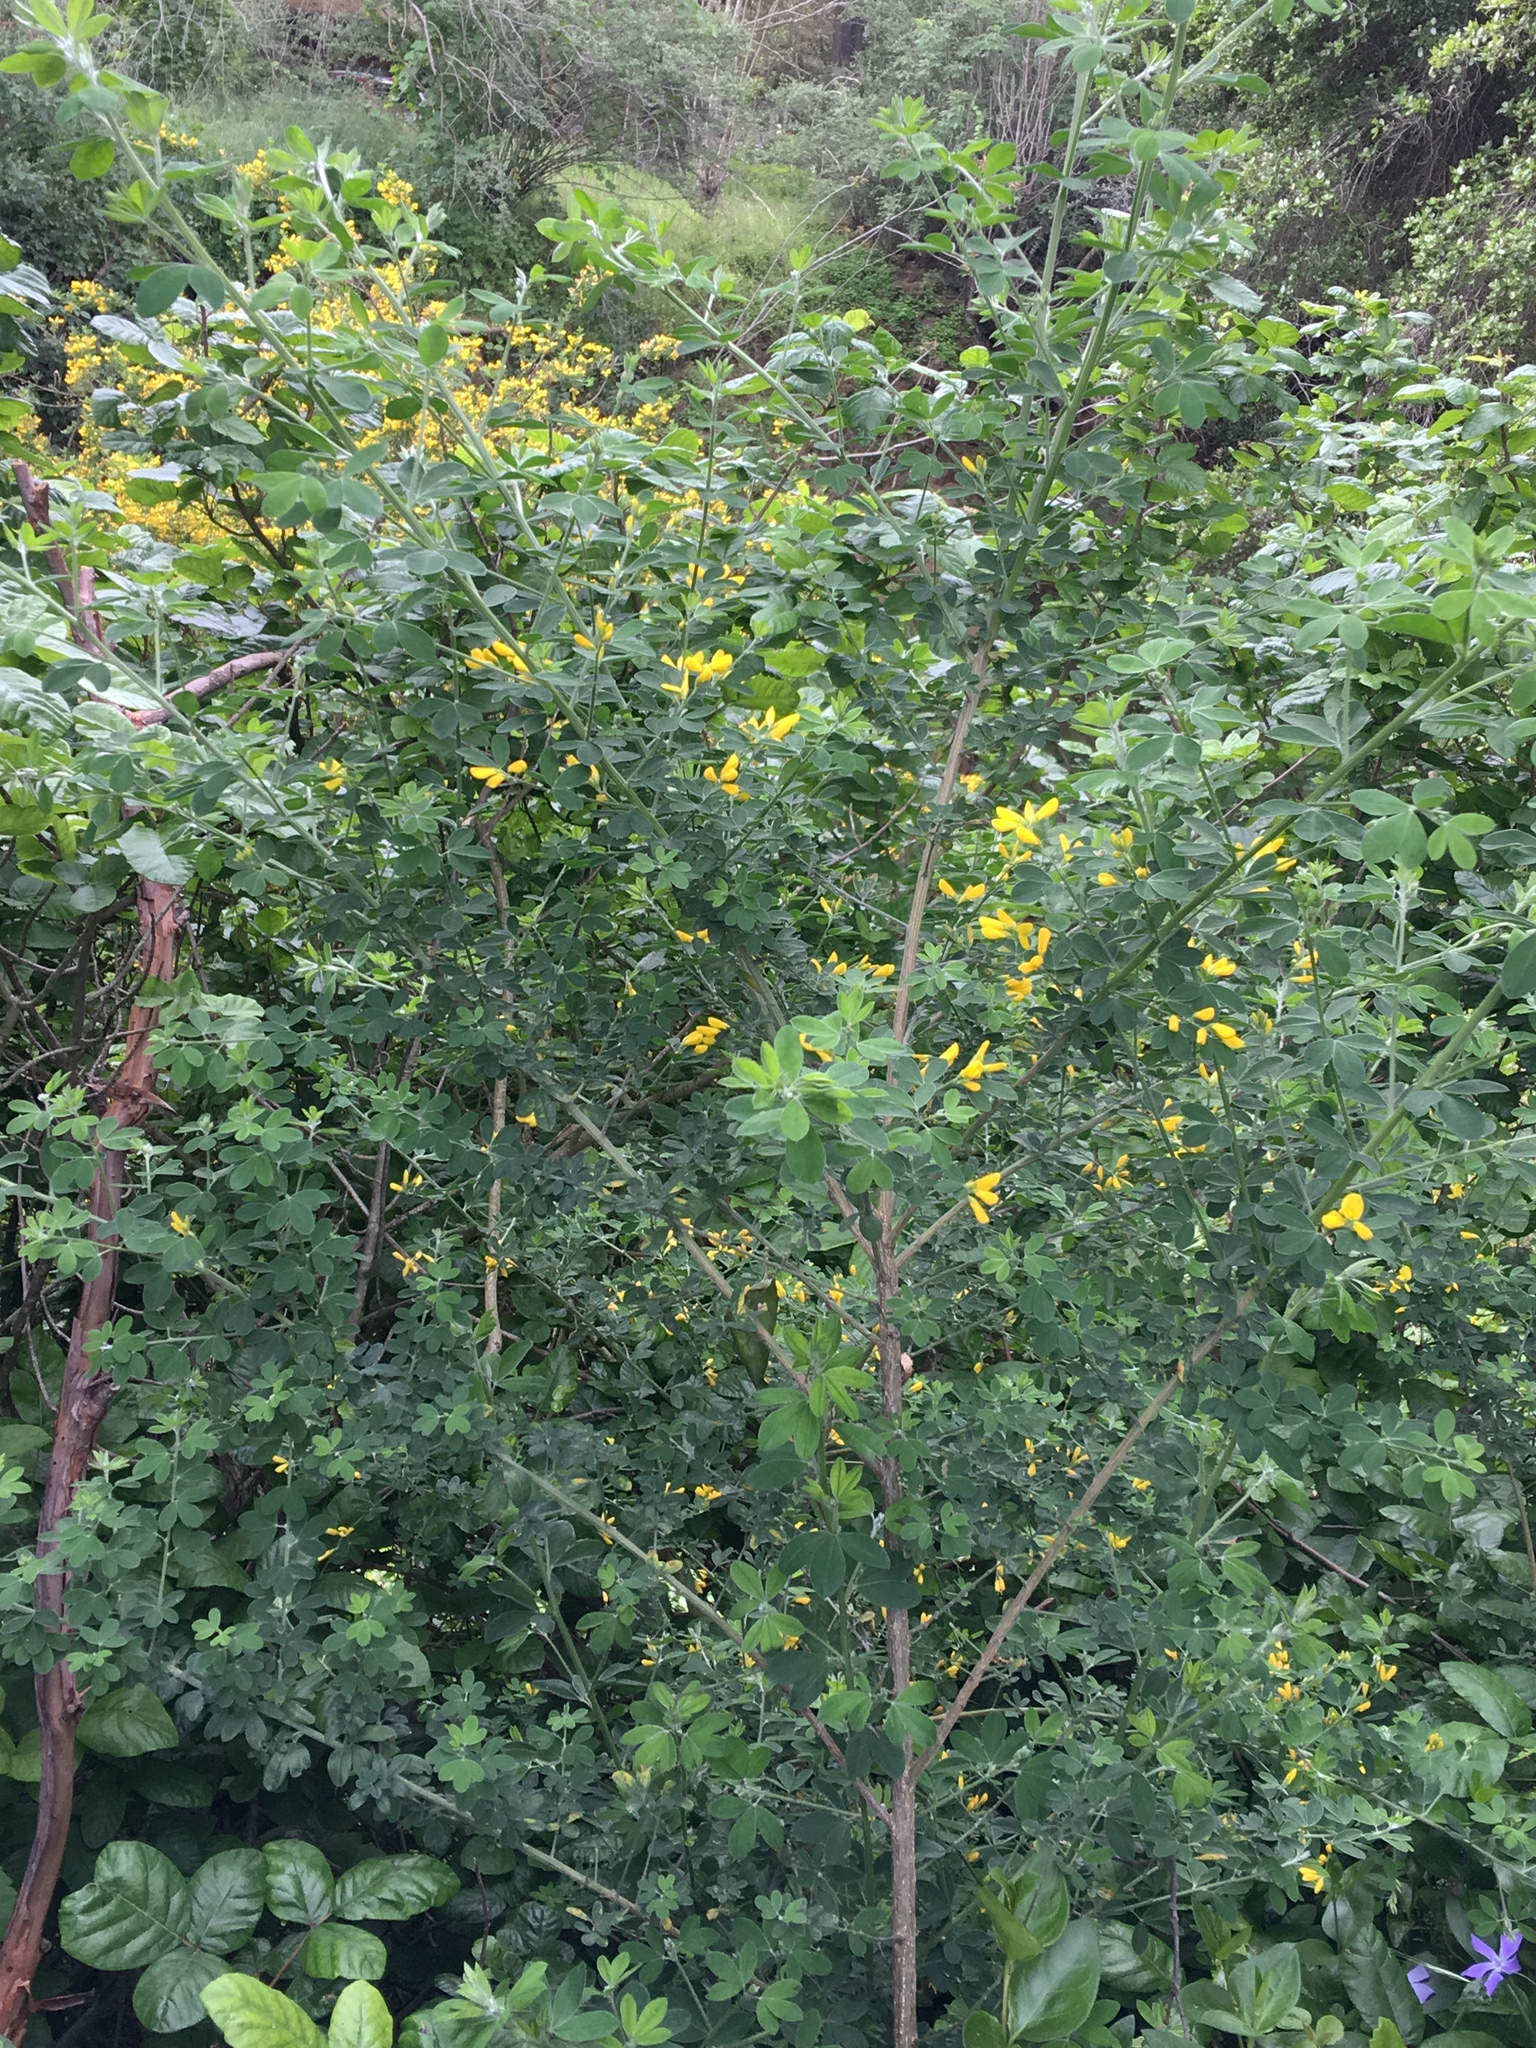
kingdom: Plantae
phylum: Tracheophyta
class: Magnoliopsida
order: Fabales
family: Fabaceae
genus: Genista
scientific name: Genista monspessulana
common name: Montpellier broom
